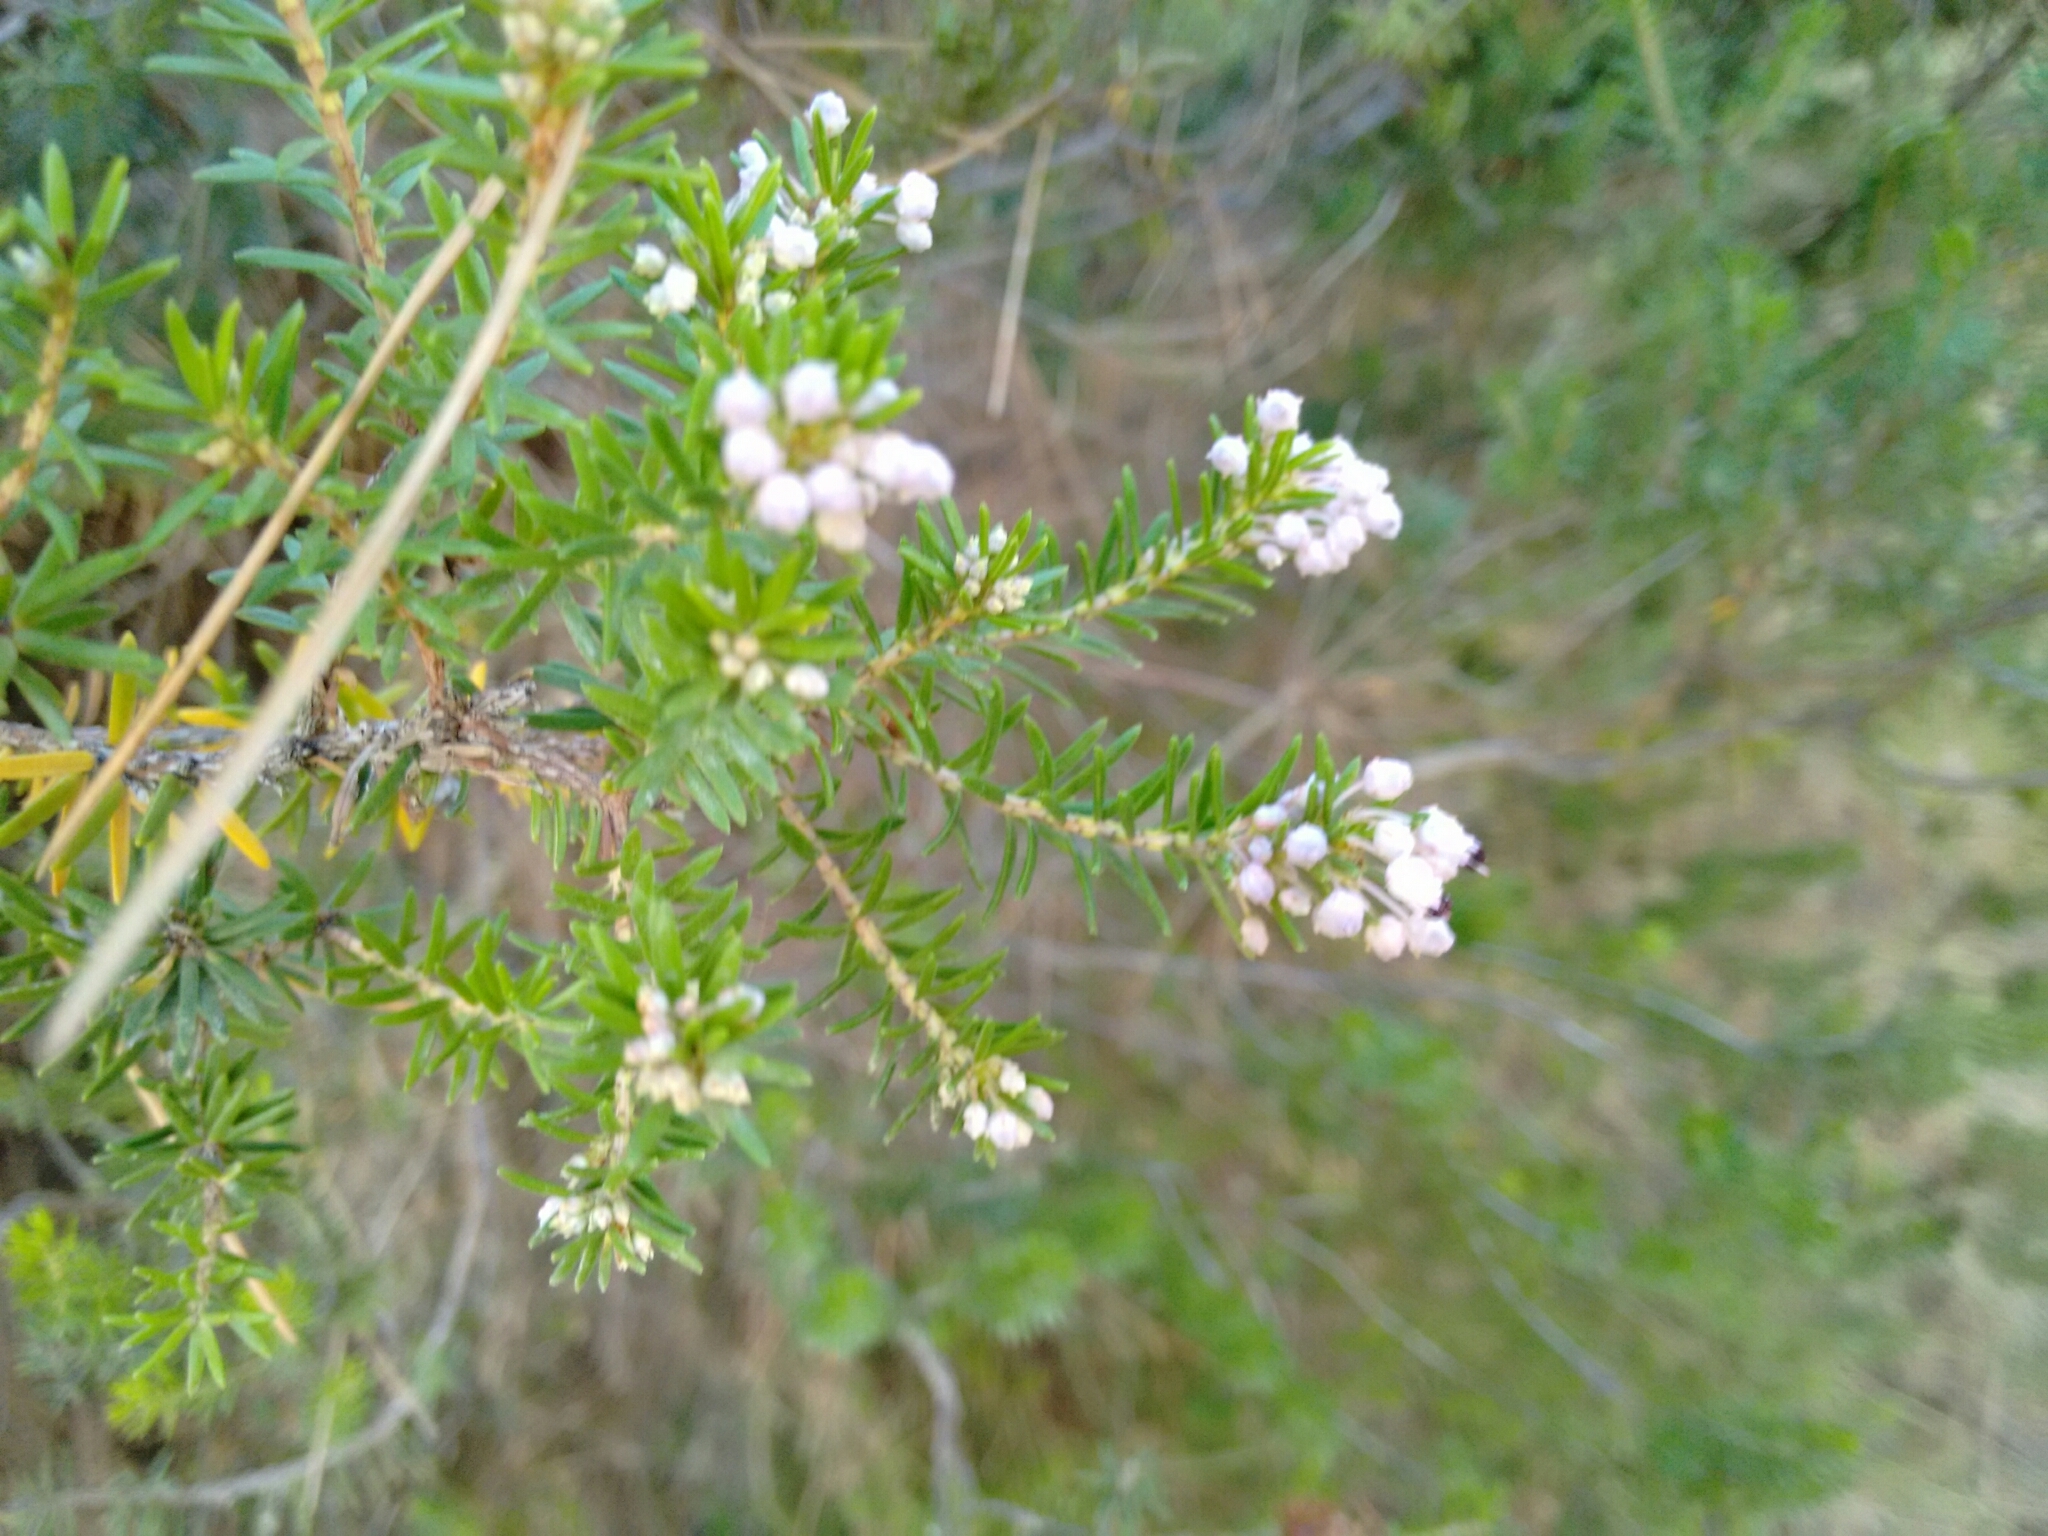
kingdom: Plantae
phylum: Tracheophyta
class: Magnoliopsida
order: Ericales
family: Ericaceae
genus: Erica
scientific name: Erica multiflora
